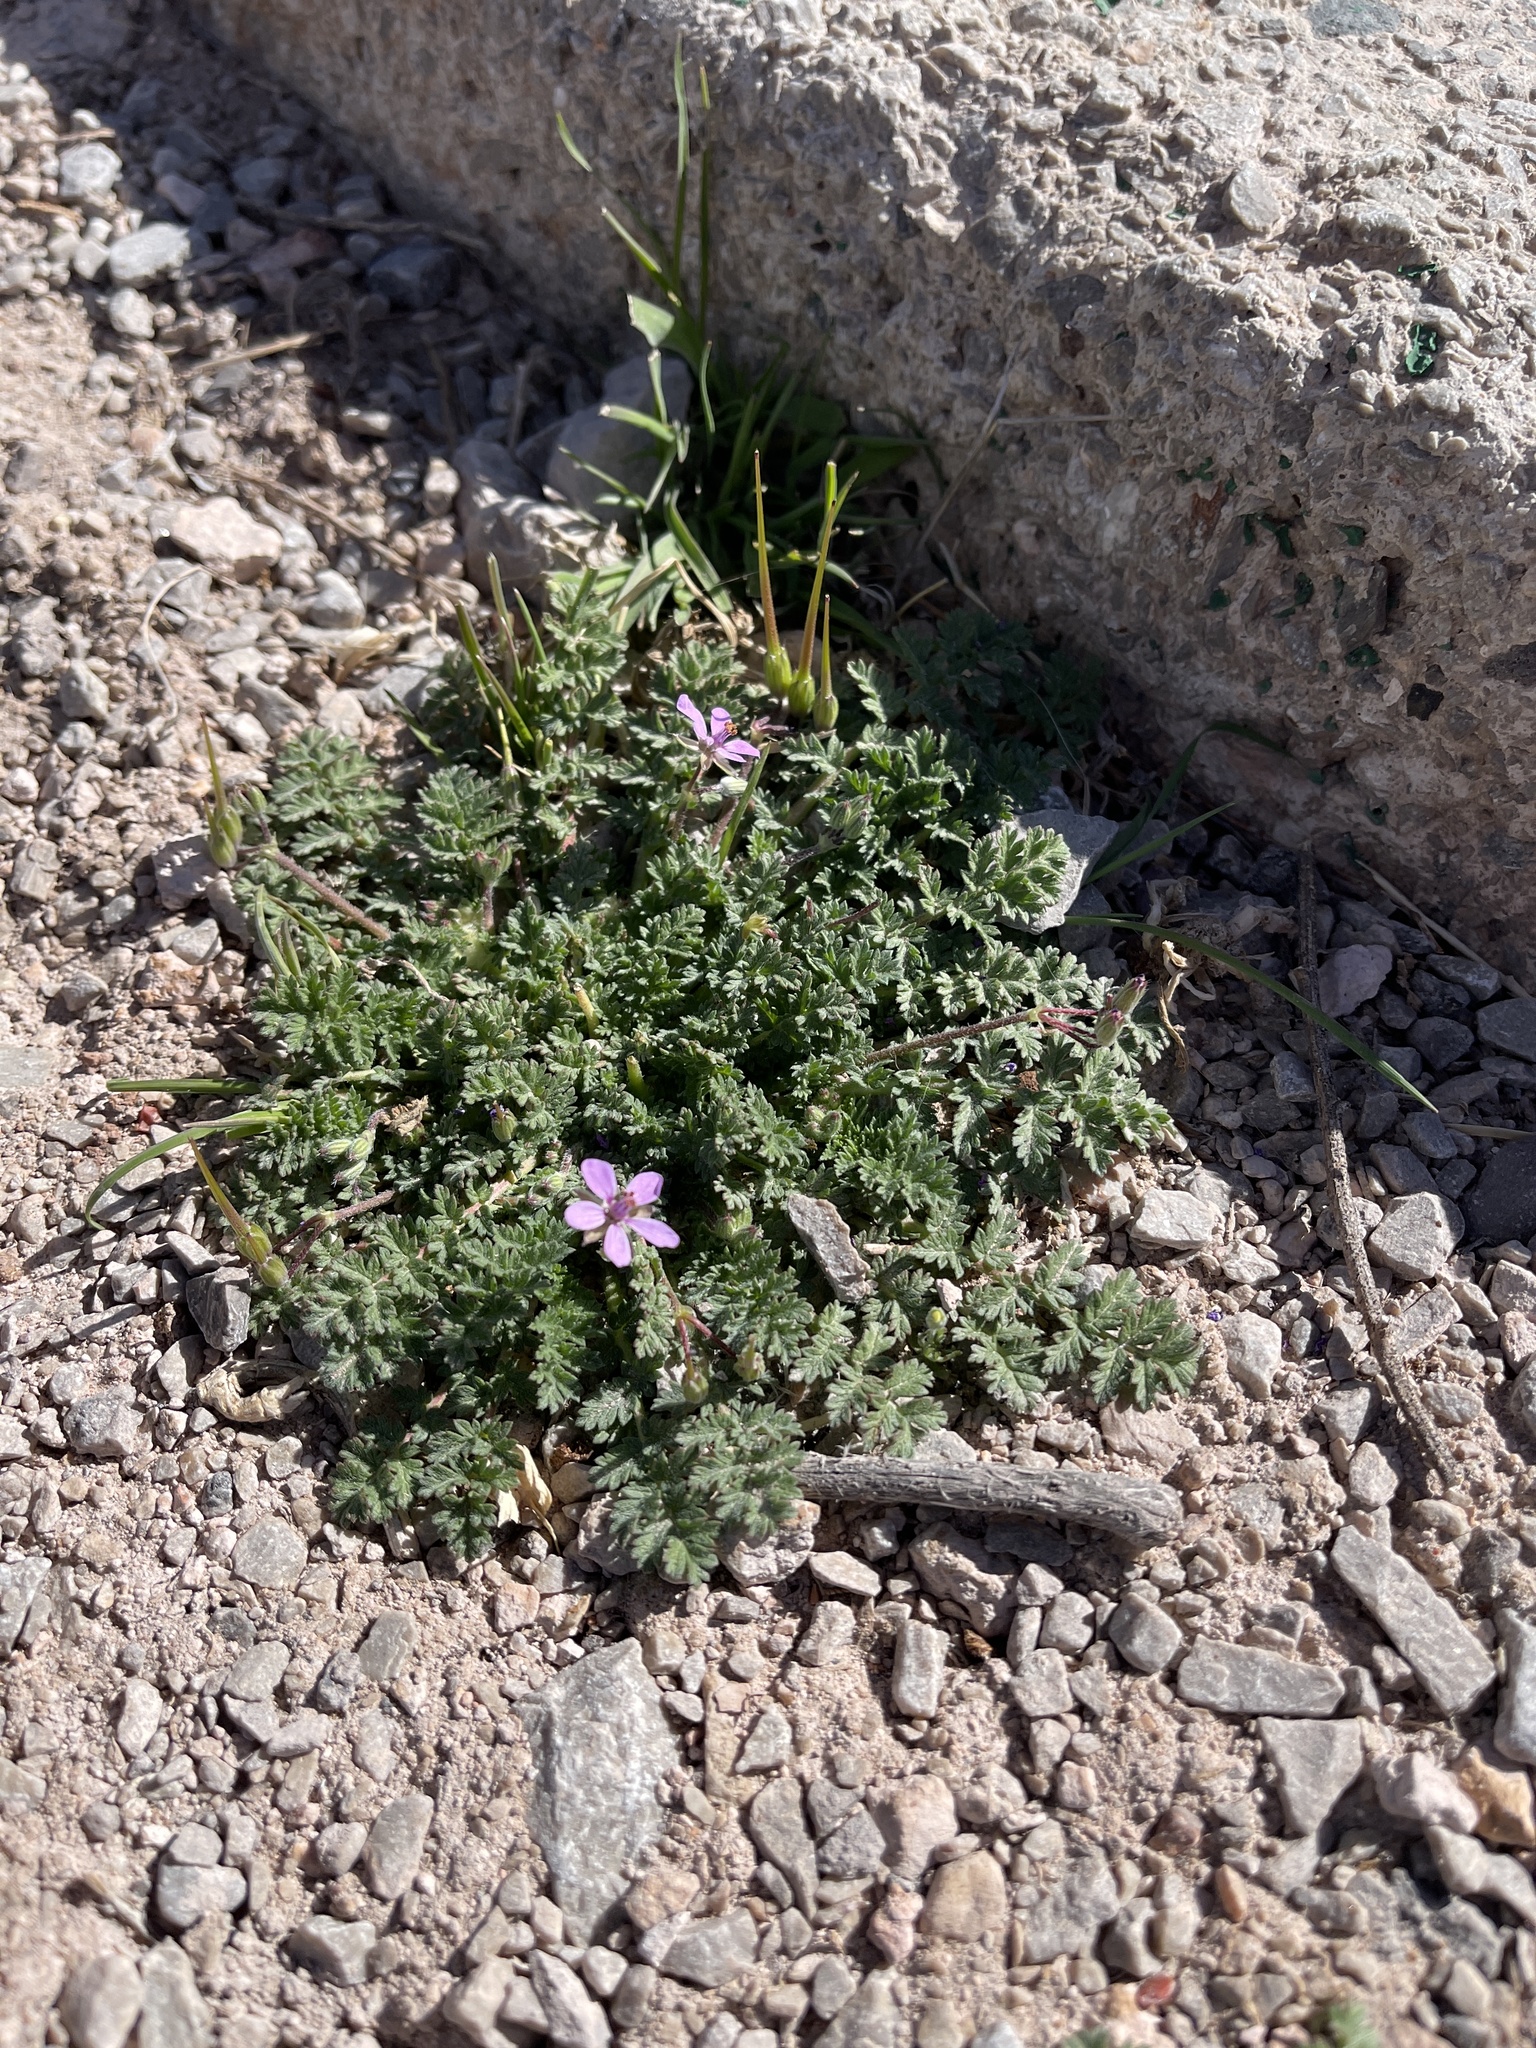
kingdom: Plantae
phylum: Tracheophyta
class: Magnoliopsida
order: Geraniales
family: Geraniaceae
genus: Erodium
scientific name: Erodium cicutarium
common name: Common stork's-bill
